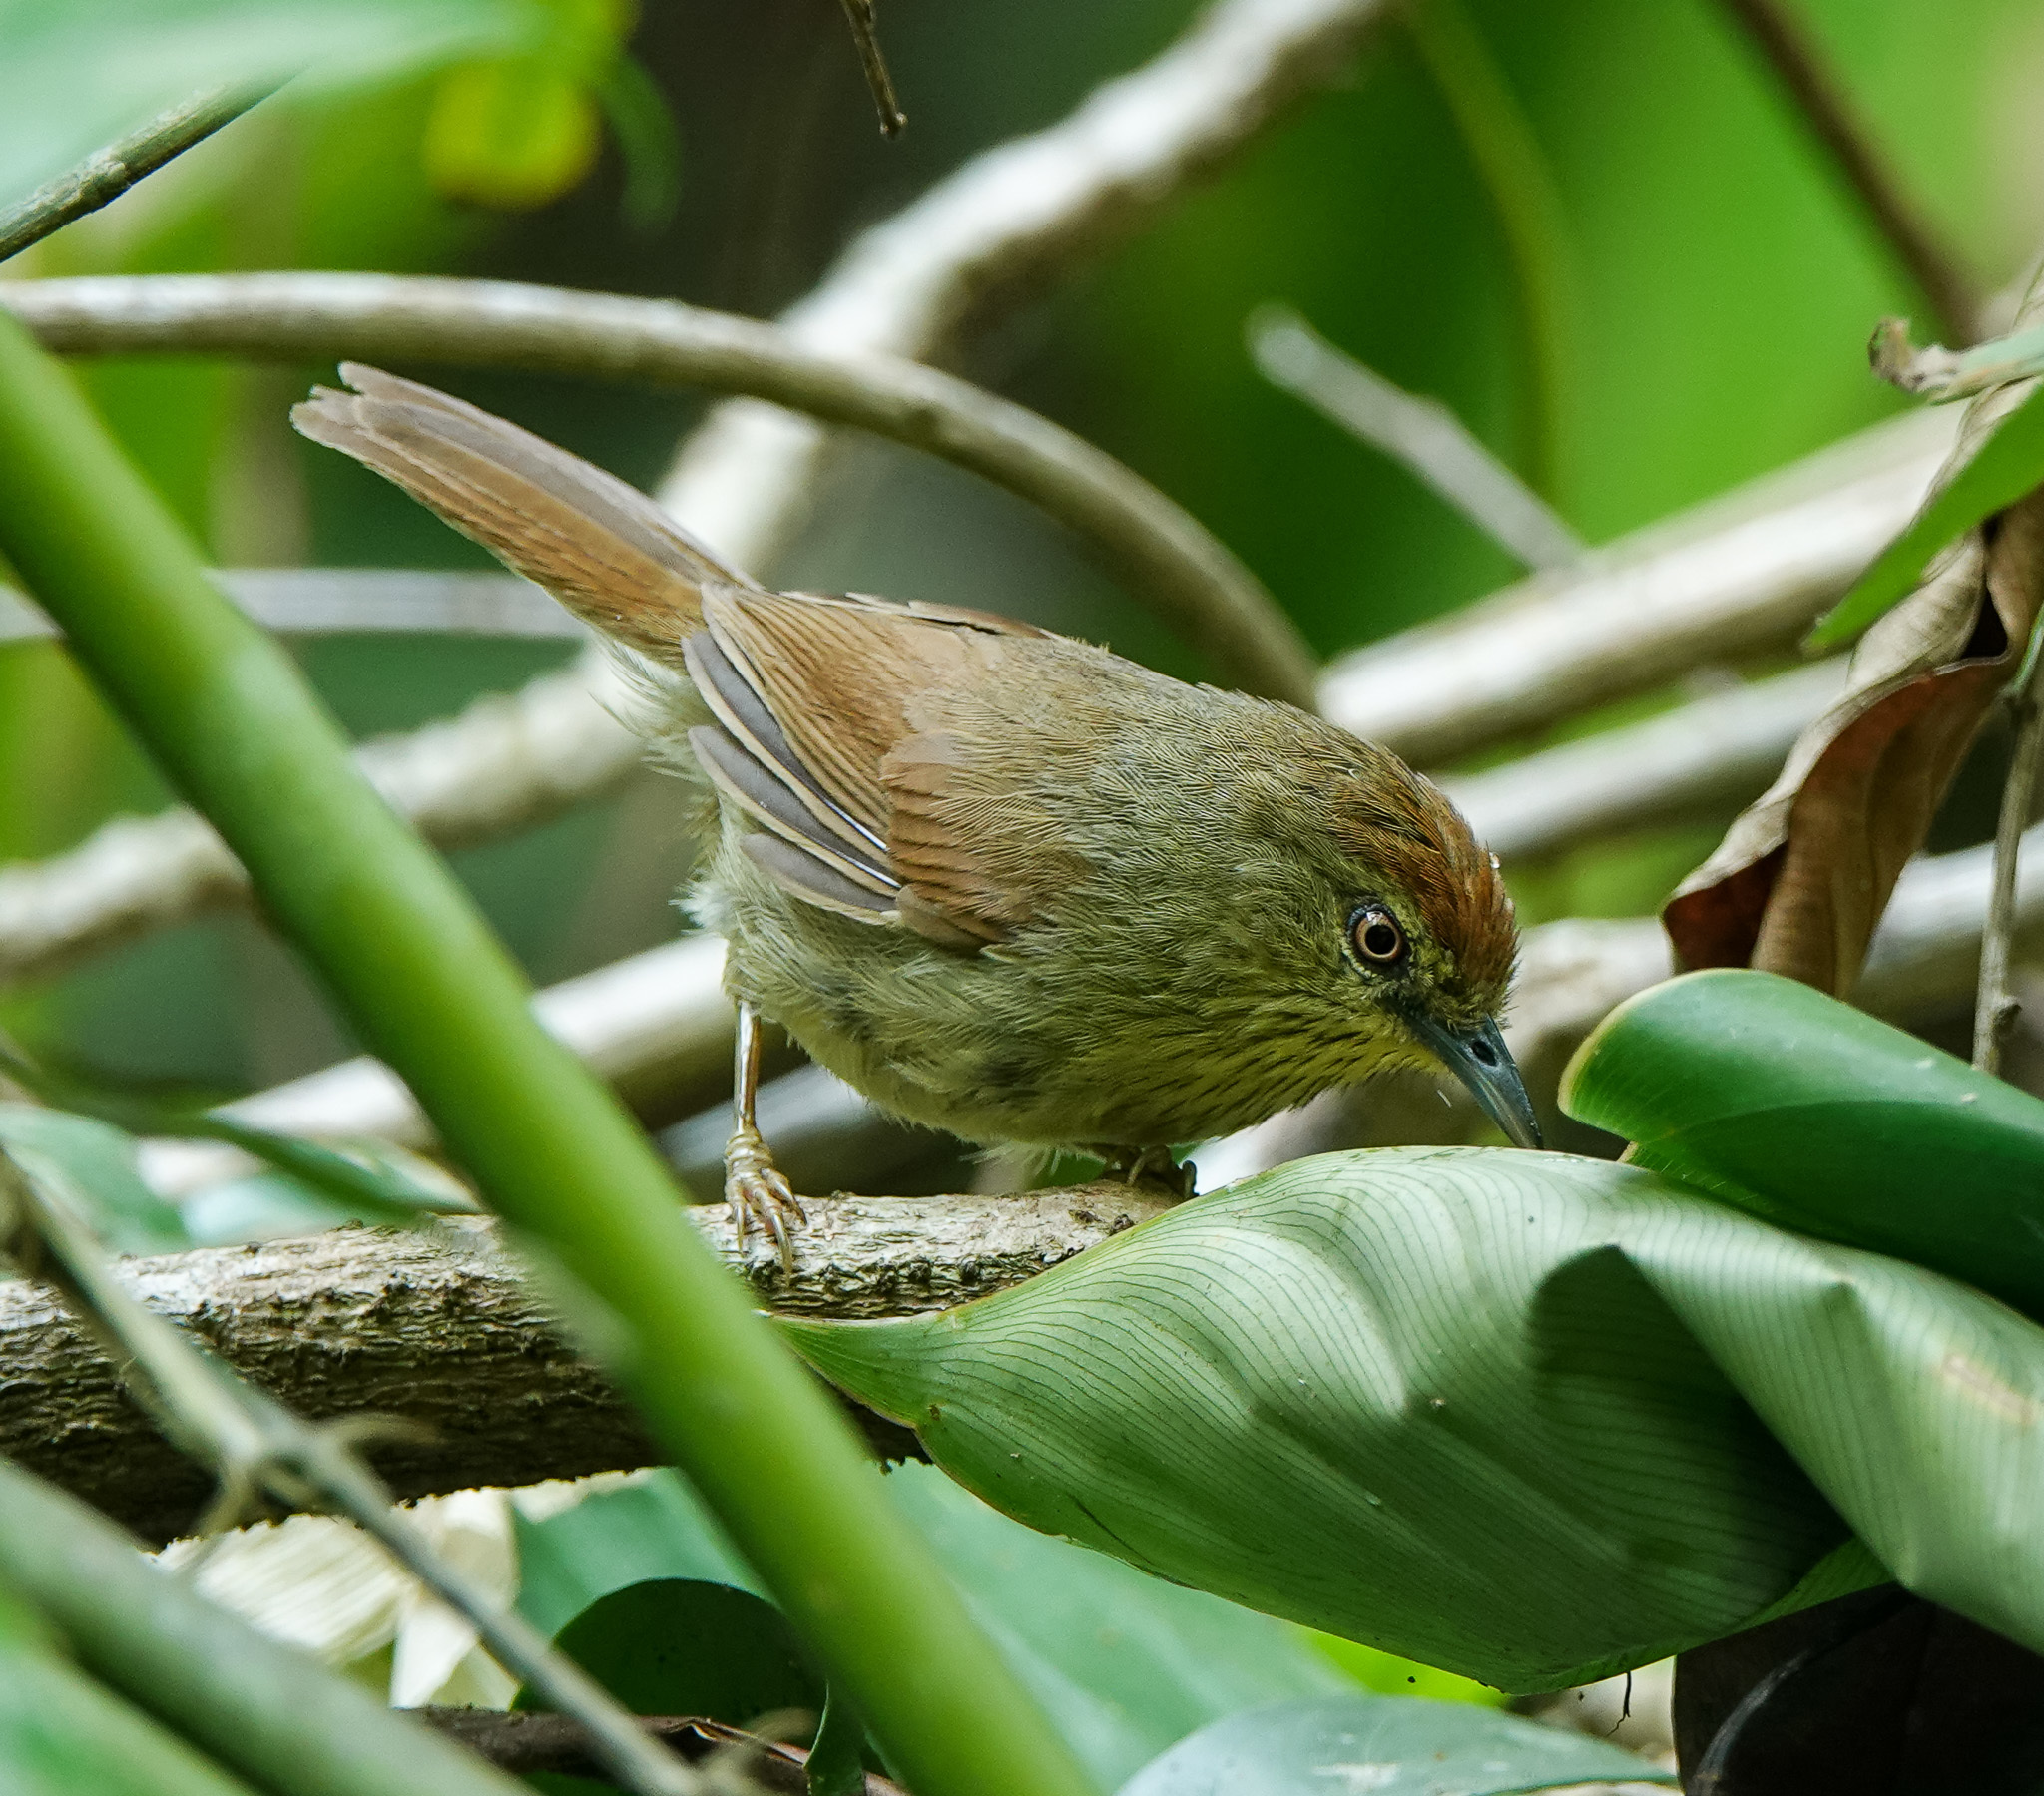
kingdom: Animalia
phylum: Chordata
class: Aves
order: Passeriformes
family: Timaliidae
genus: Macronus
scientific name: Macronus gularis
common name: Striped tit-babbler
